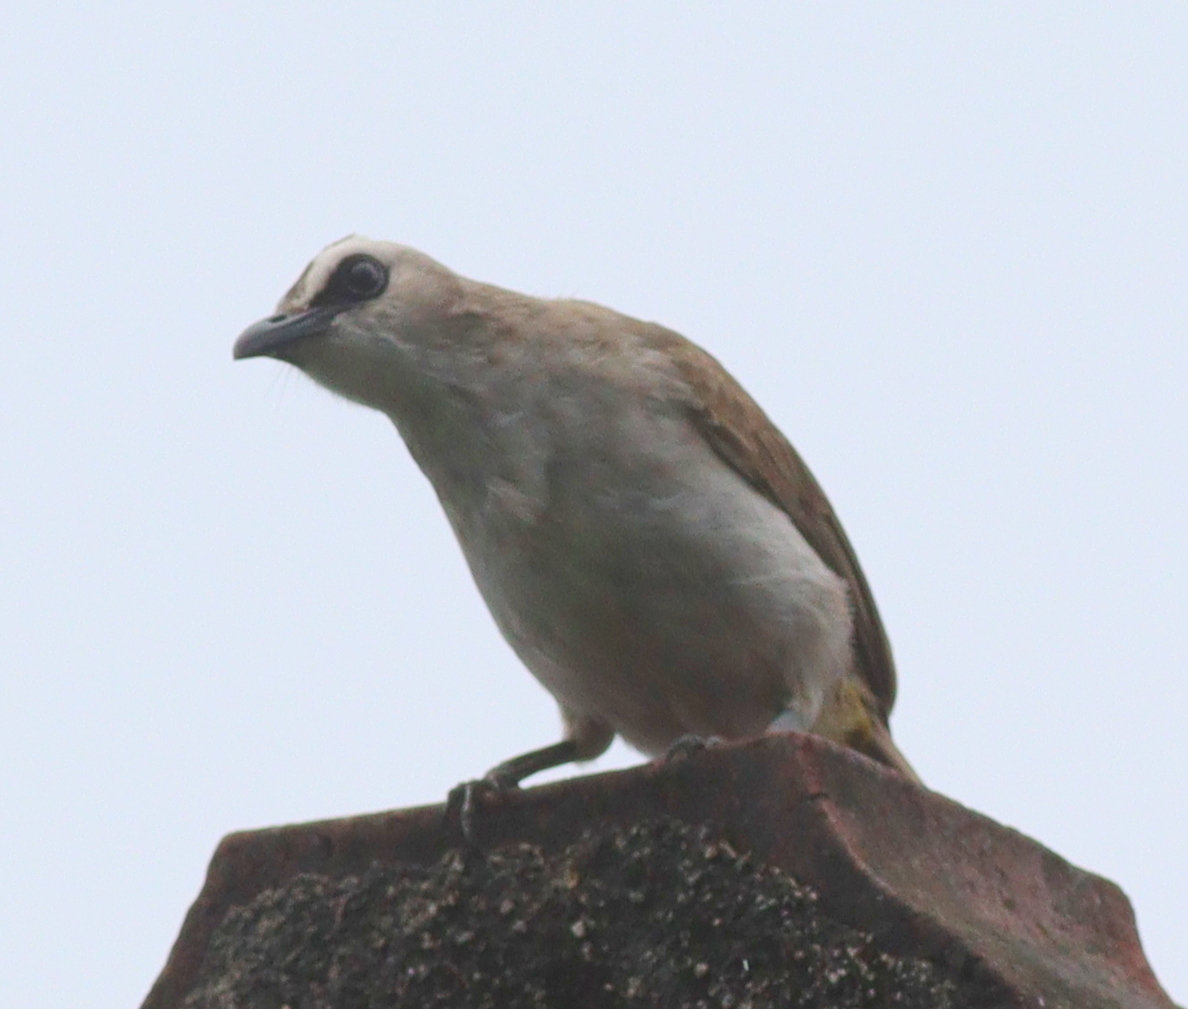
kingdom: Animalia
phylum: Chordata
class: Aves
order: Passeriformes
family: Pycnonotidae
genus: Pycnonotus
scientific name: Pycnonotus goiavier
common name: Yellow-vented bulbul
